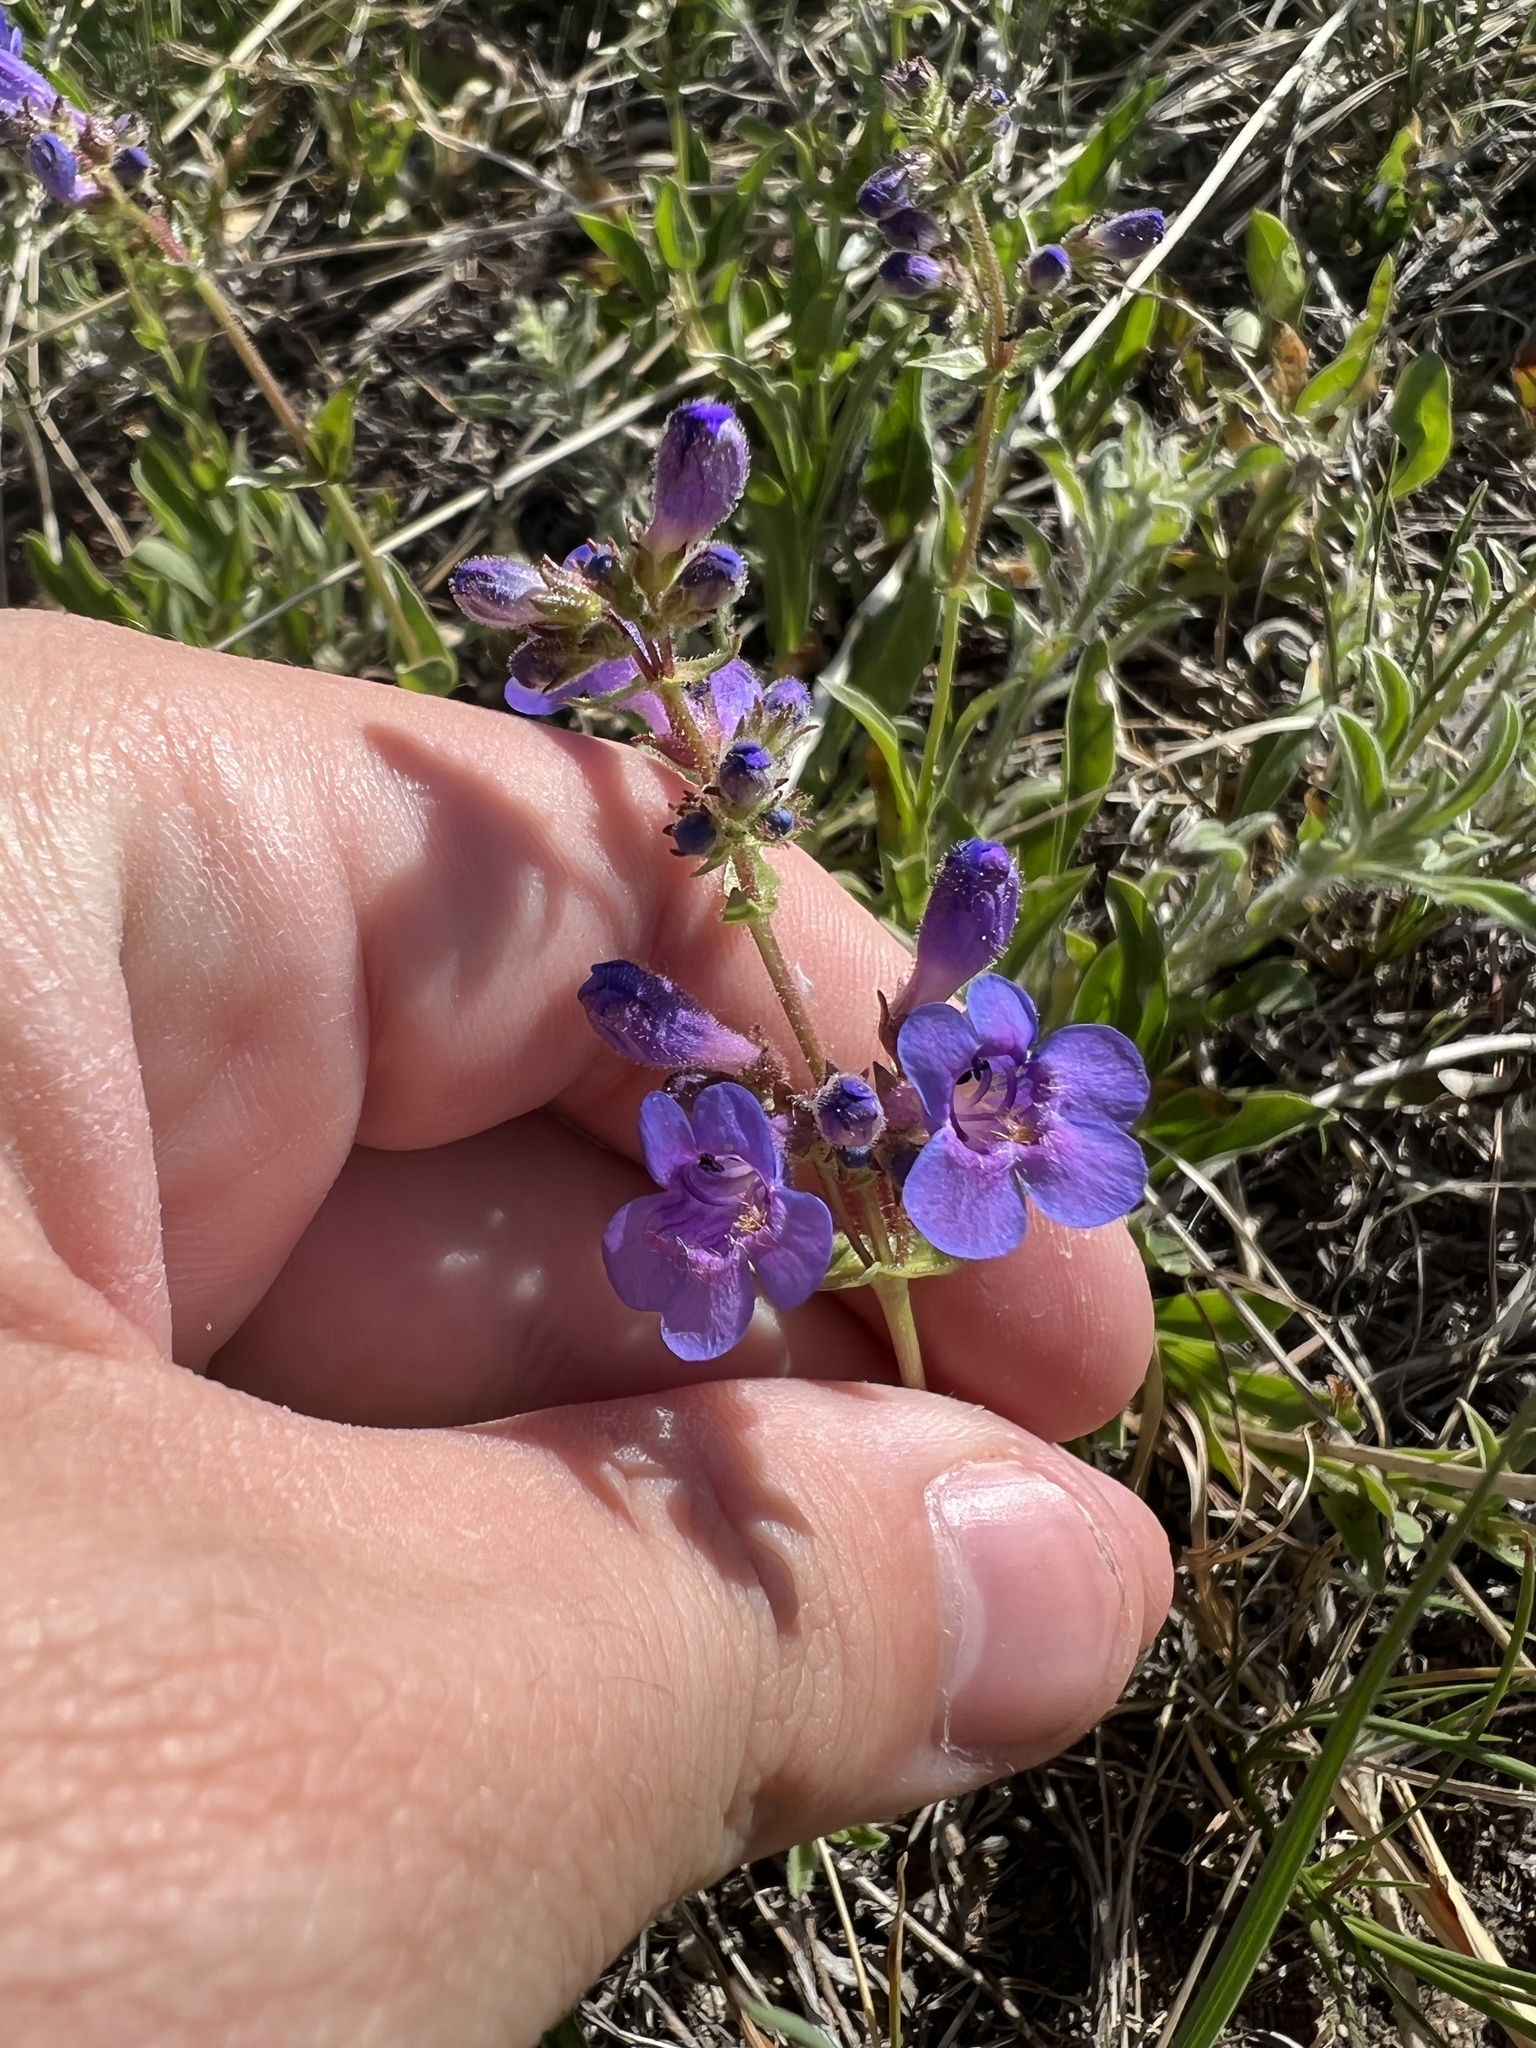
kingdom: Plantae
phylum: Tracheophyta
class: Magnoliopsida
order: Lamiales
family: Plantaginaceae
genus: Penstemon
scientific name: Penstemon virens
